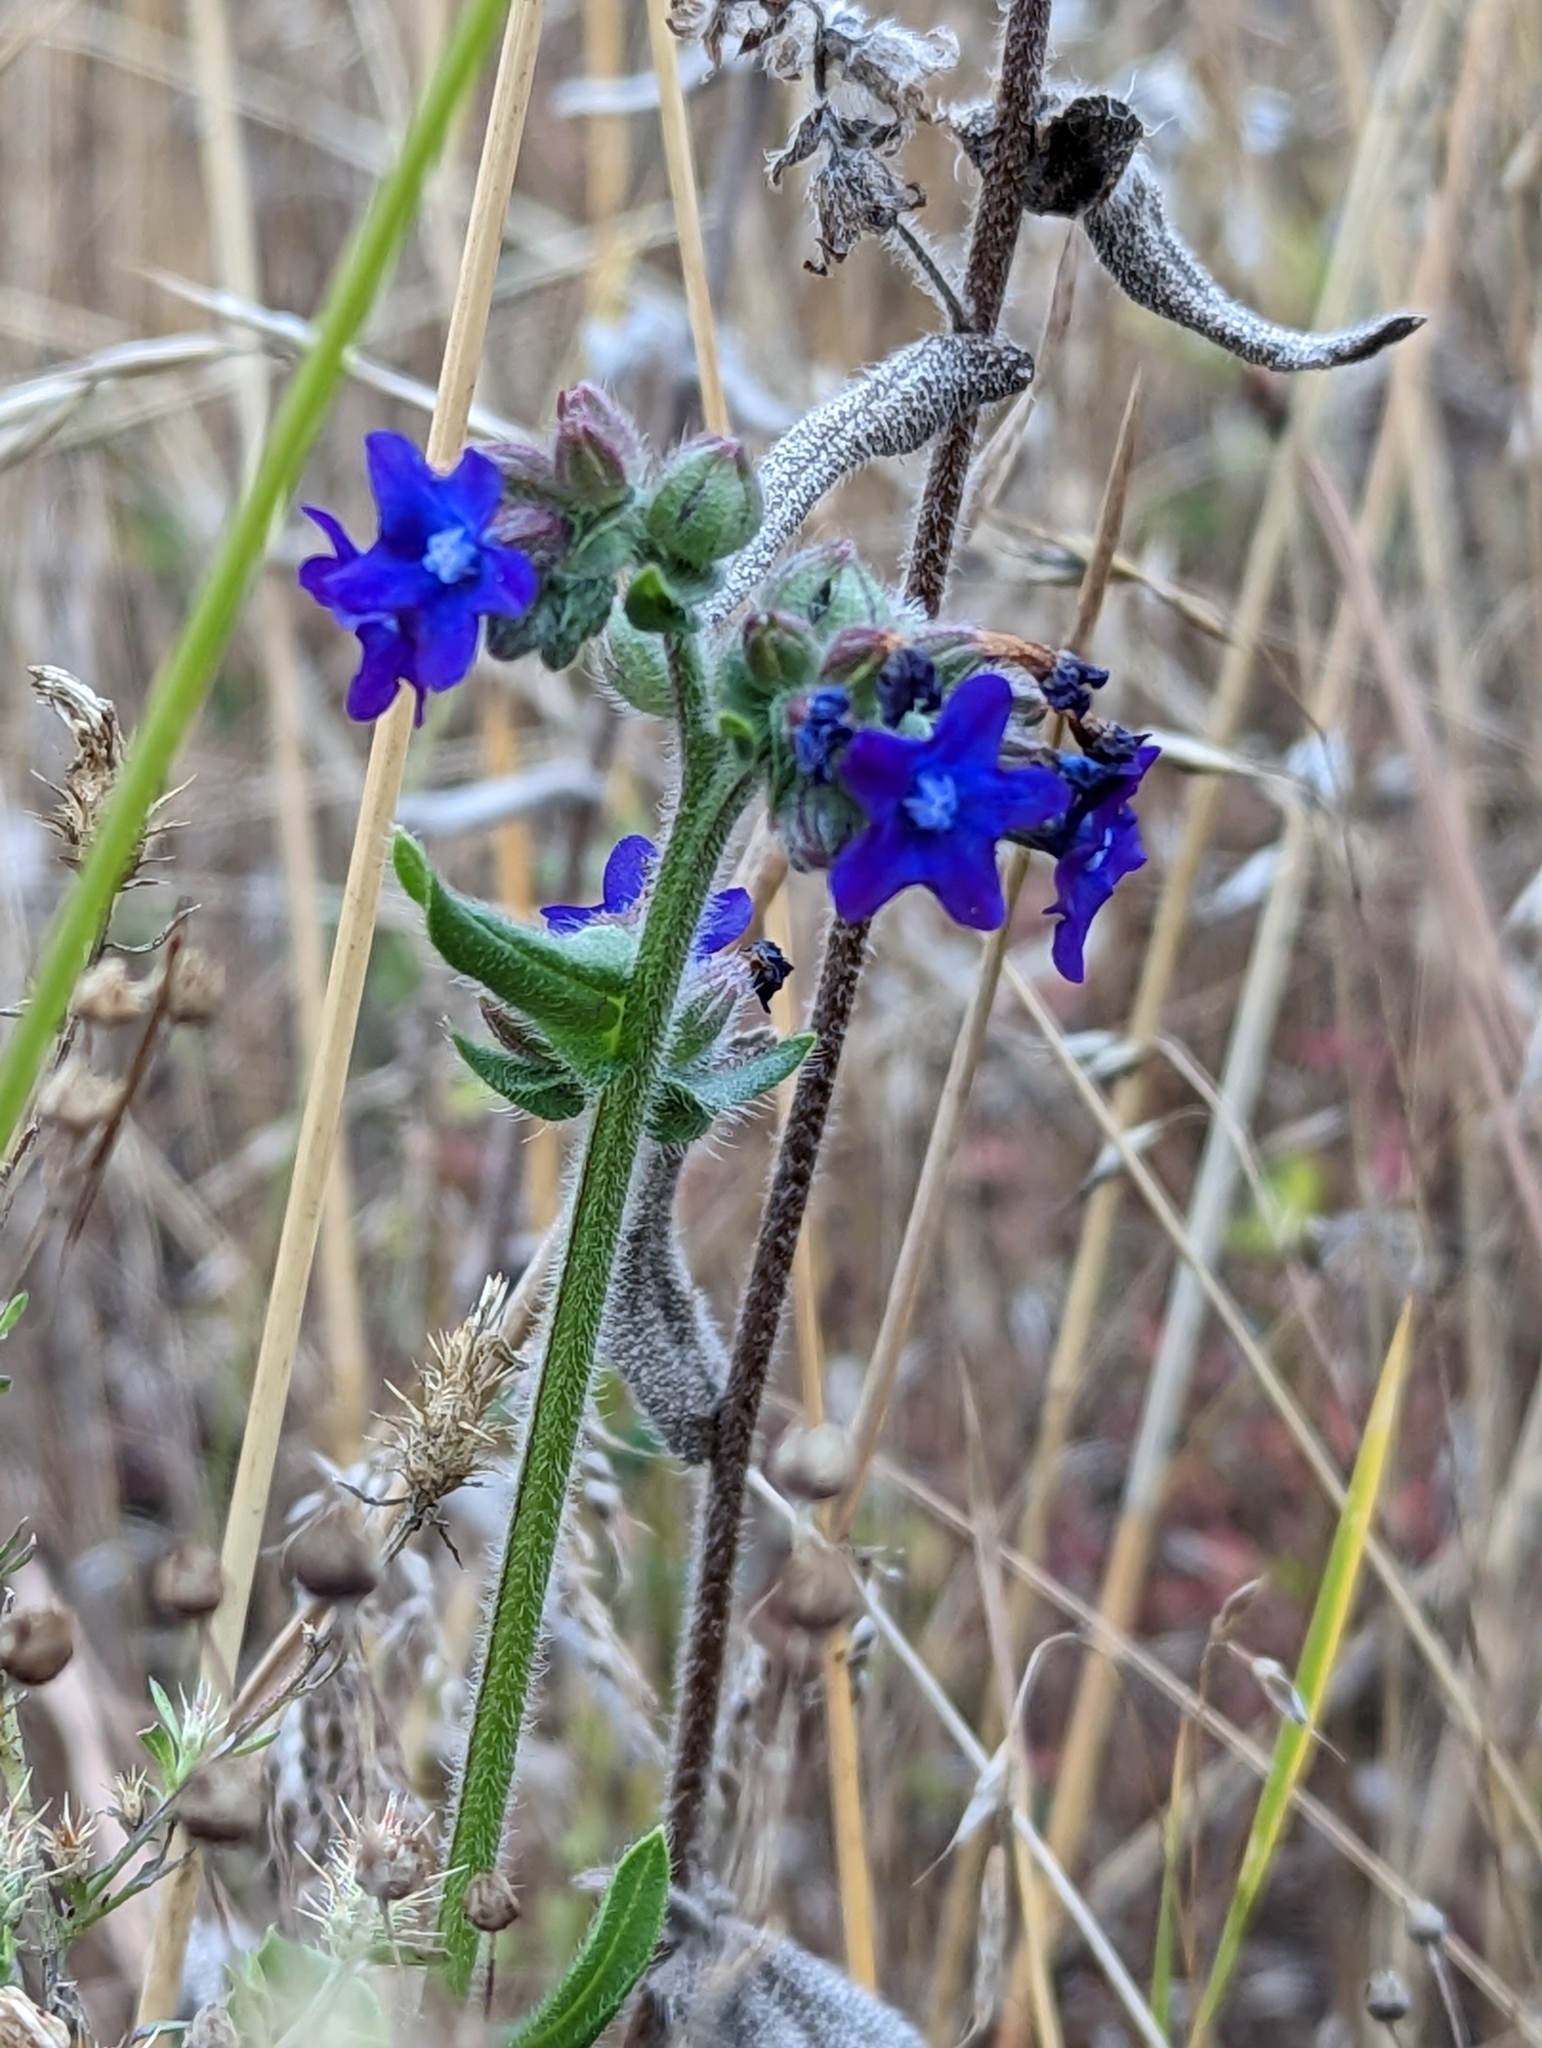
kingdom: Plantae
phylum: Tracheophyta
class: Magnoliopsida
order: Boraginales
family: Boraginaceae
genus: Anchusa
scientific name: Anchusa officinalis
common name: Alkanet
